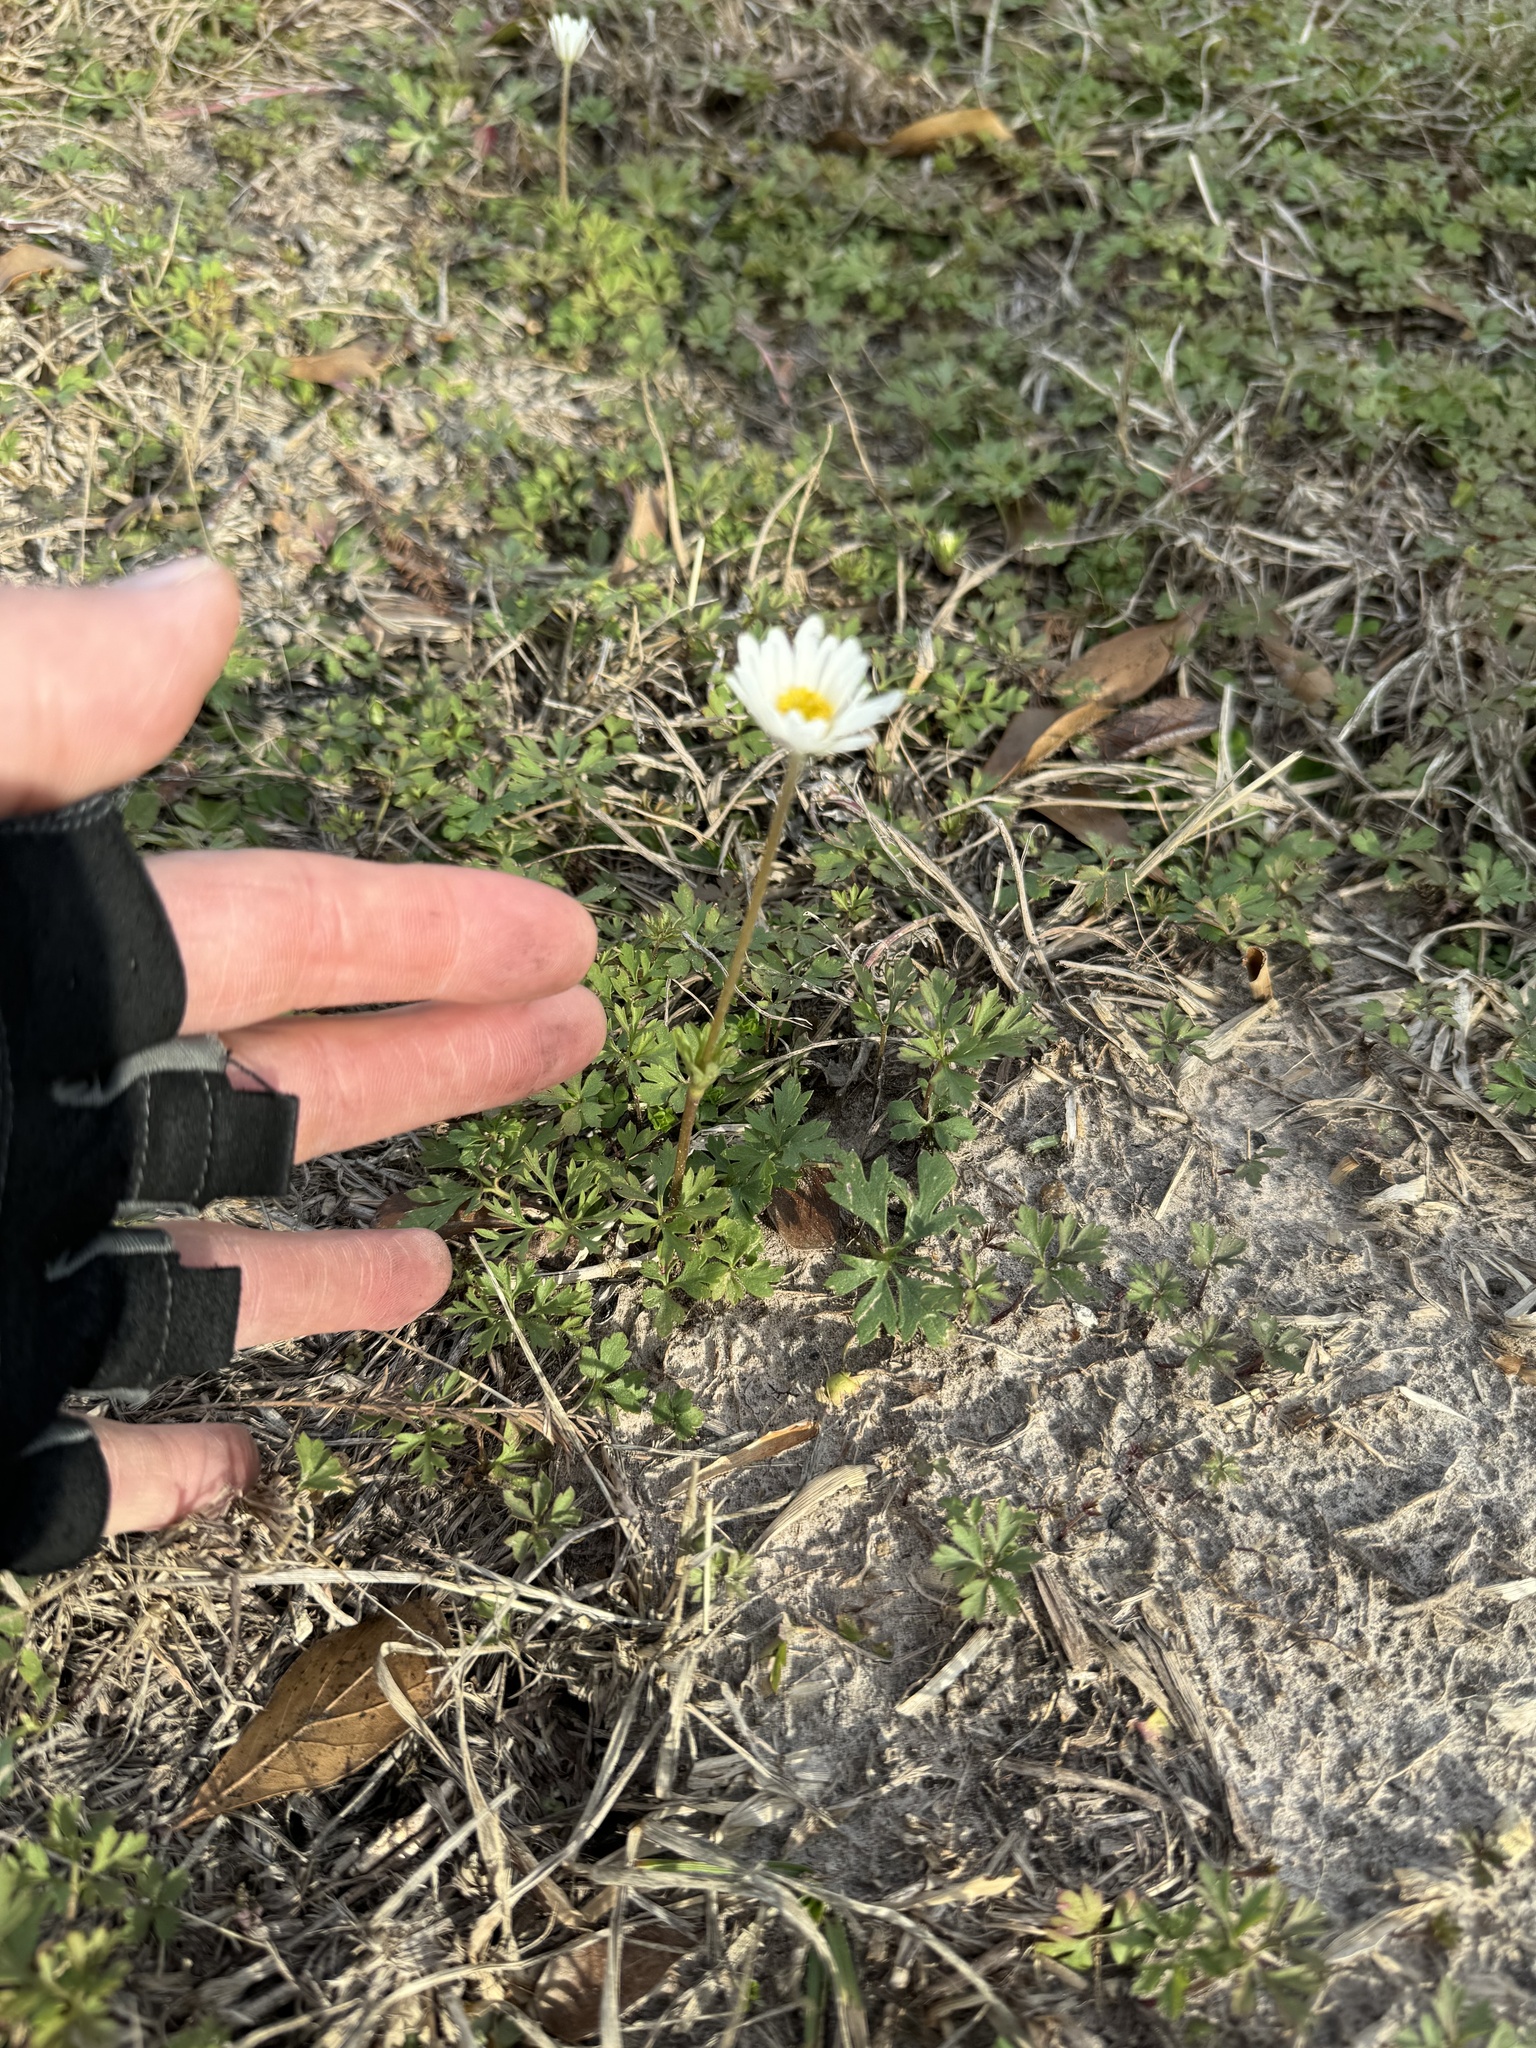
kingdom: Plantae
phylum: Tracheophyta
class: Magnoliopsida
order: Ranunculales
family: Ranunculaceae
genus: Anemone
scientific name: Anemone caroliniana
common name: Carolina anemone
